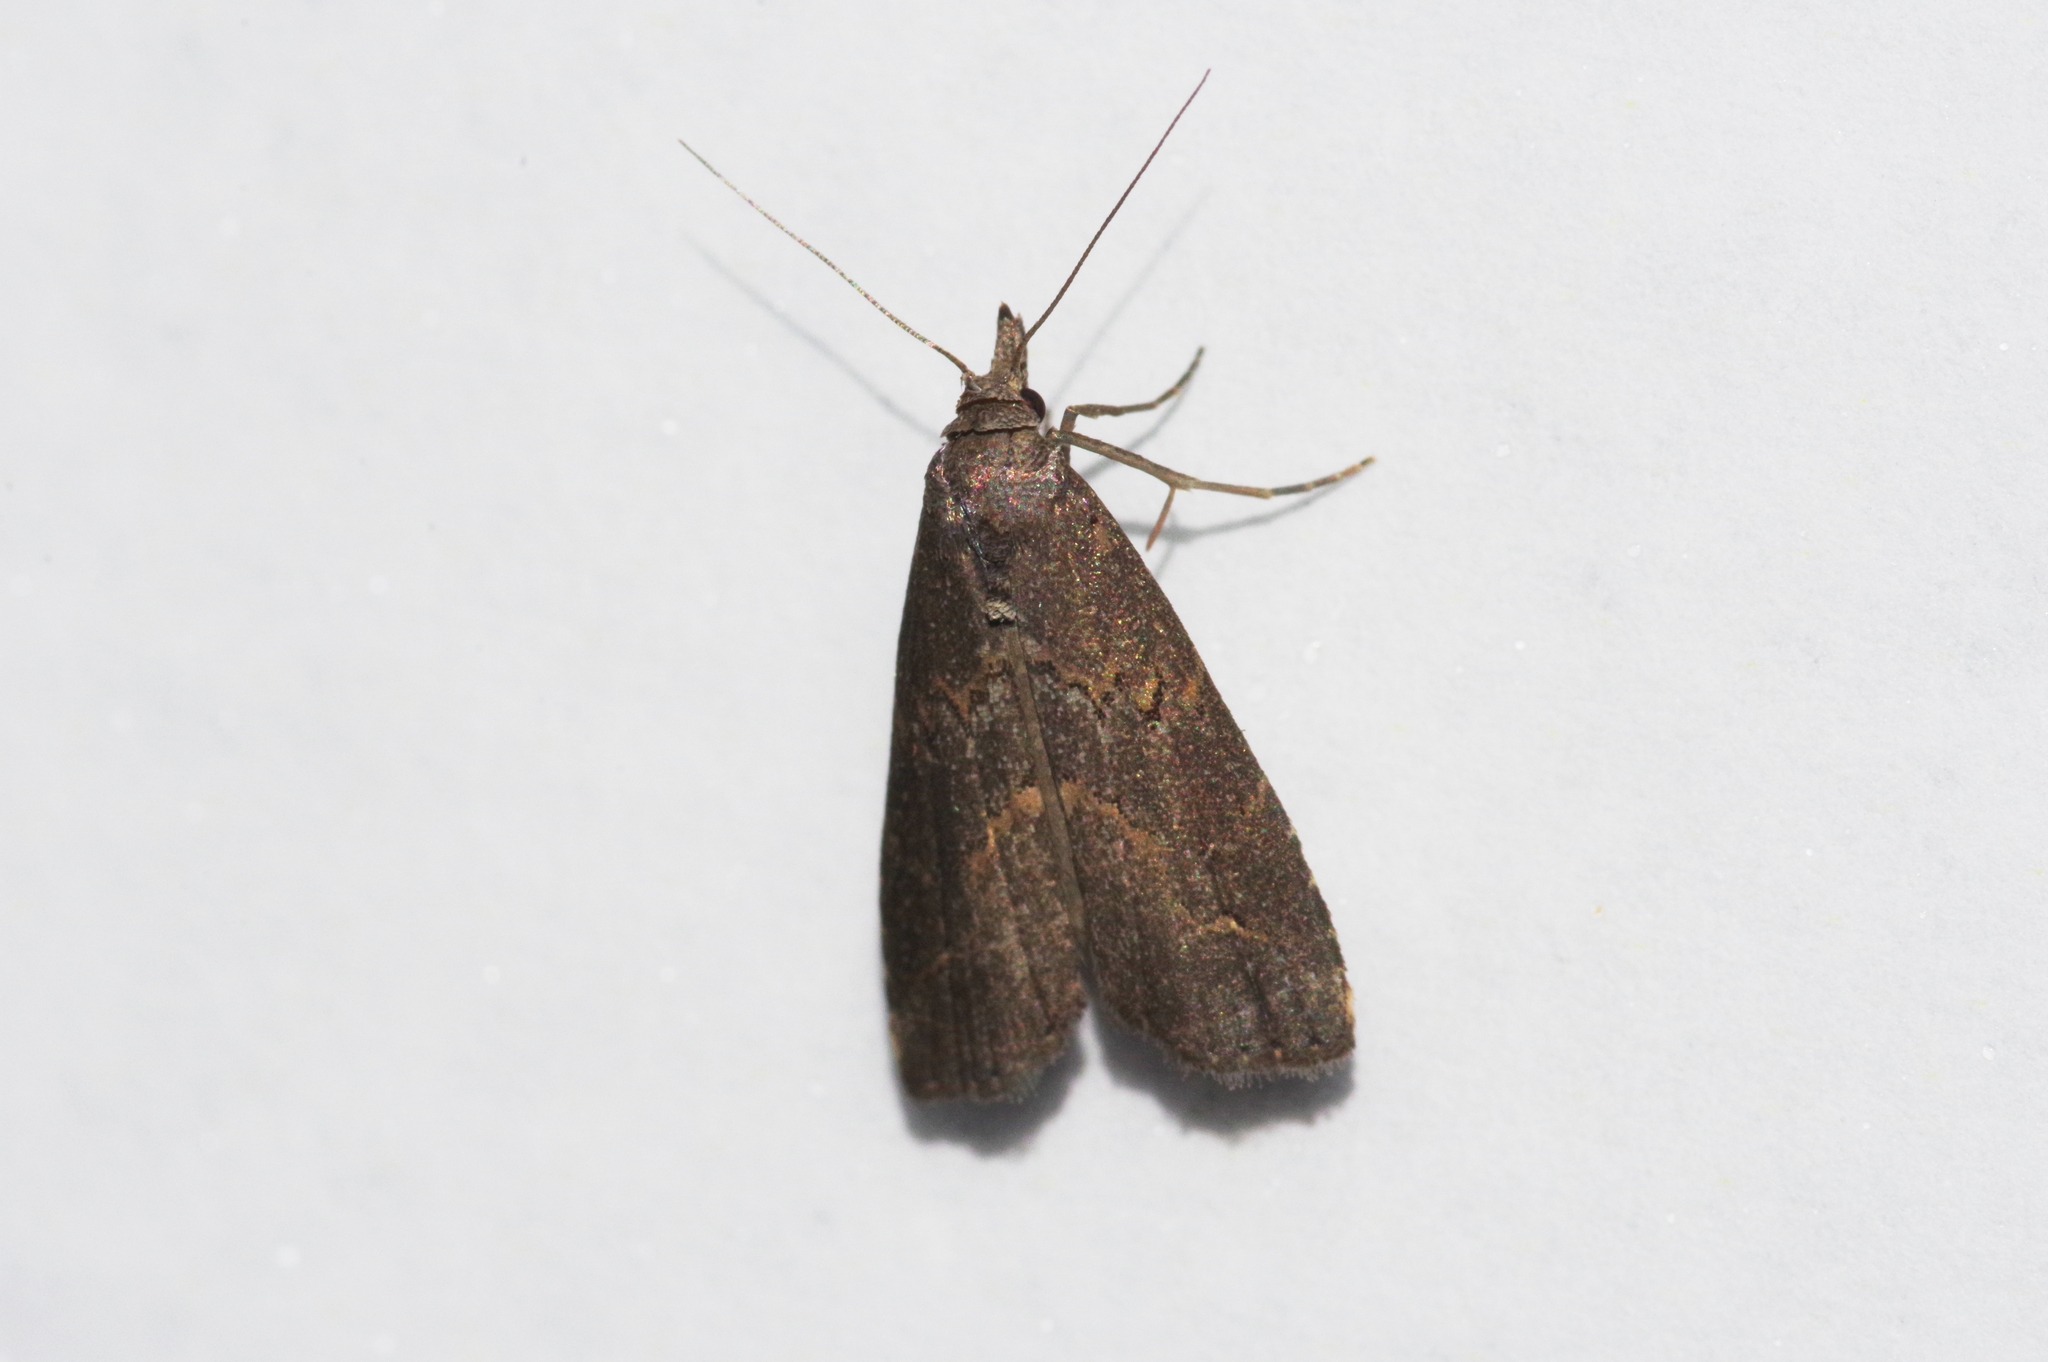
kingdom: Animalia
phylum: Arthropoda
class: Insecta
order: Lepidoptera
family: Erebidae
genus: Schrankia
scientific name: Schrankia costaestrigalis
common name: Pinion-streaked snout
